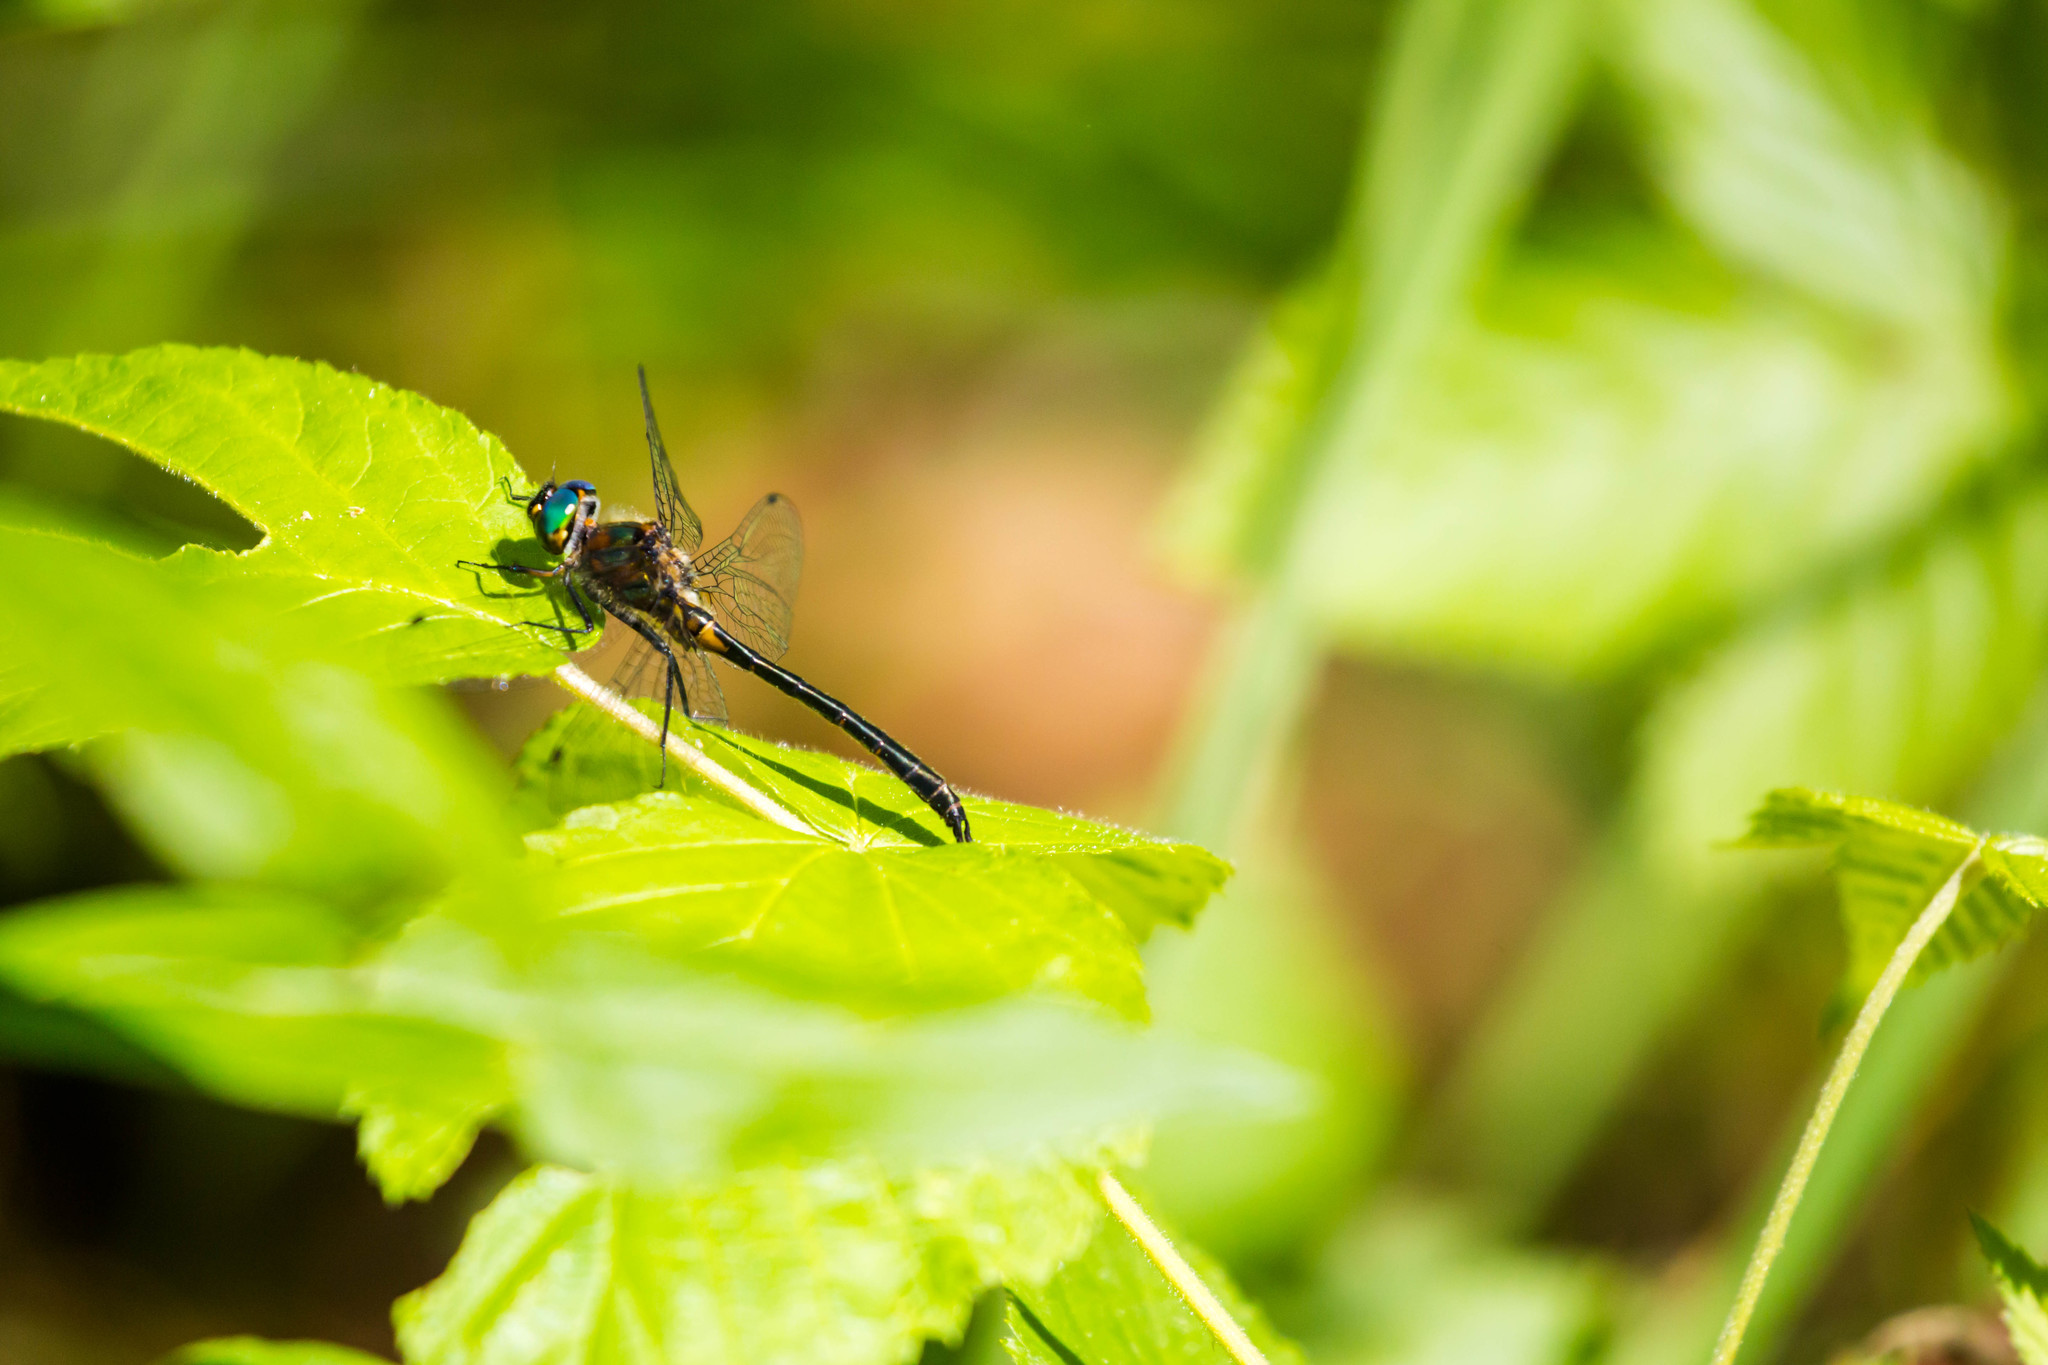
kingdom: Animalia
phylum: Arthropoda
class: Insecta
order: Odonata
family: Corduliidae
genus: Dorocordulia
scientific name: Dorocordulia lepida
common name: Petite emerald
